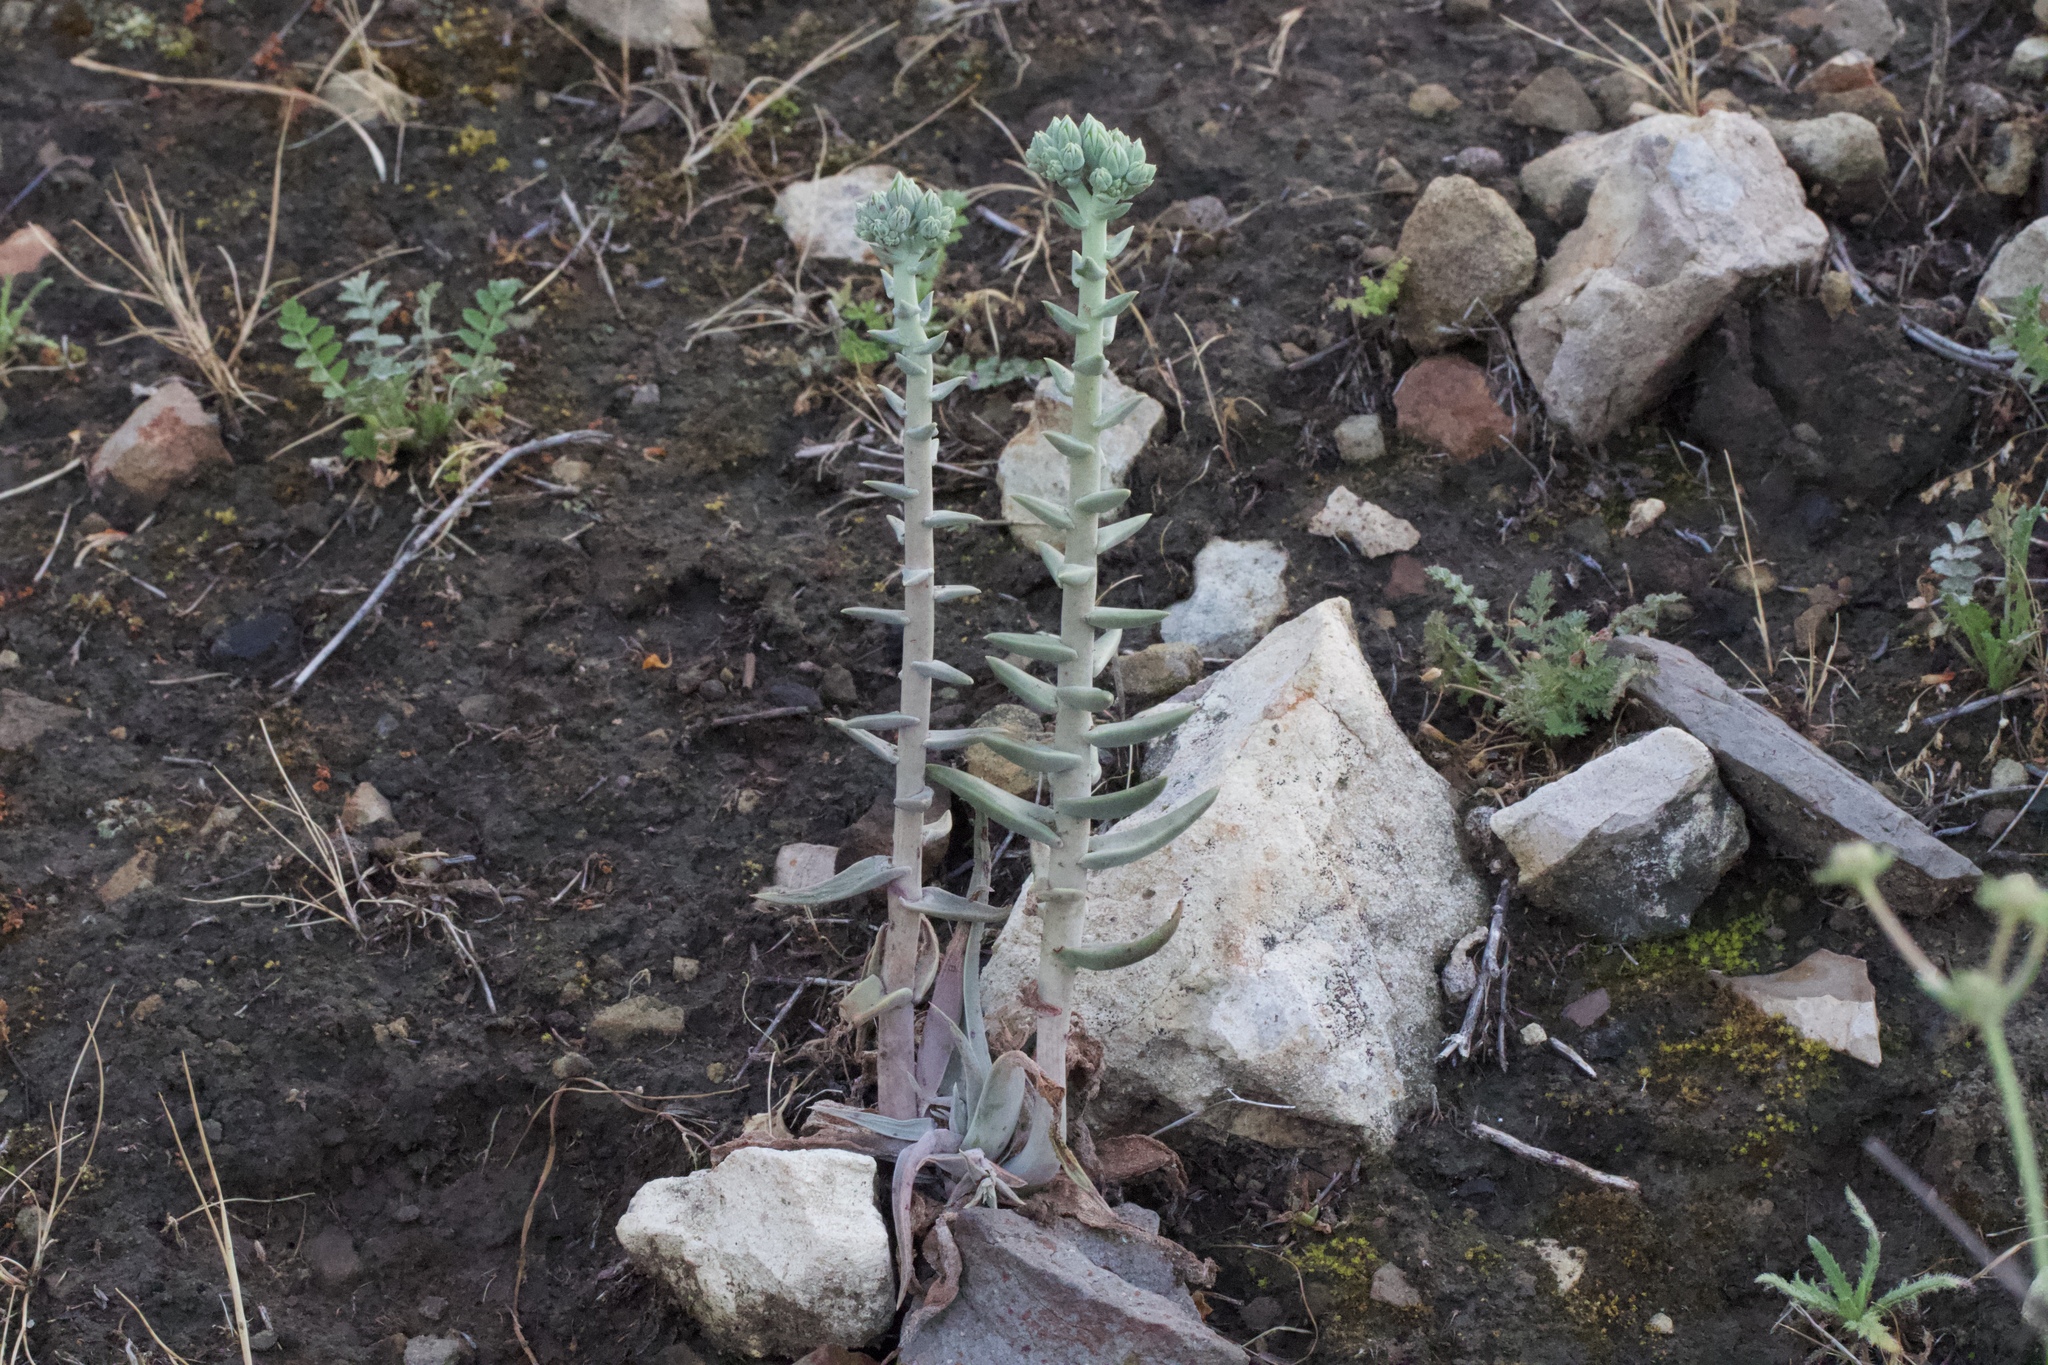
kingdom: Plantae
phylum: Tracheophyta
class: Magnoliopsida
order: Saxifragales
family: Crassulaceae
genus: Dudleya
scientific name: Dudleya lanceolata
